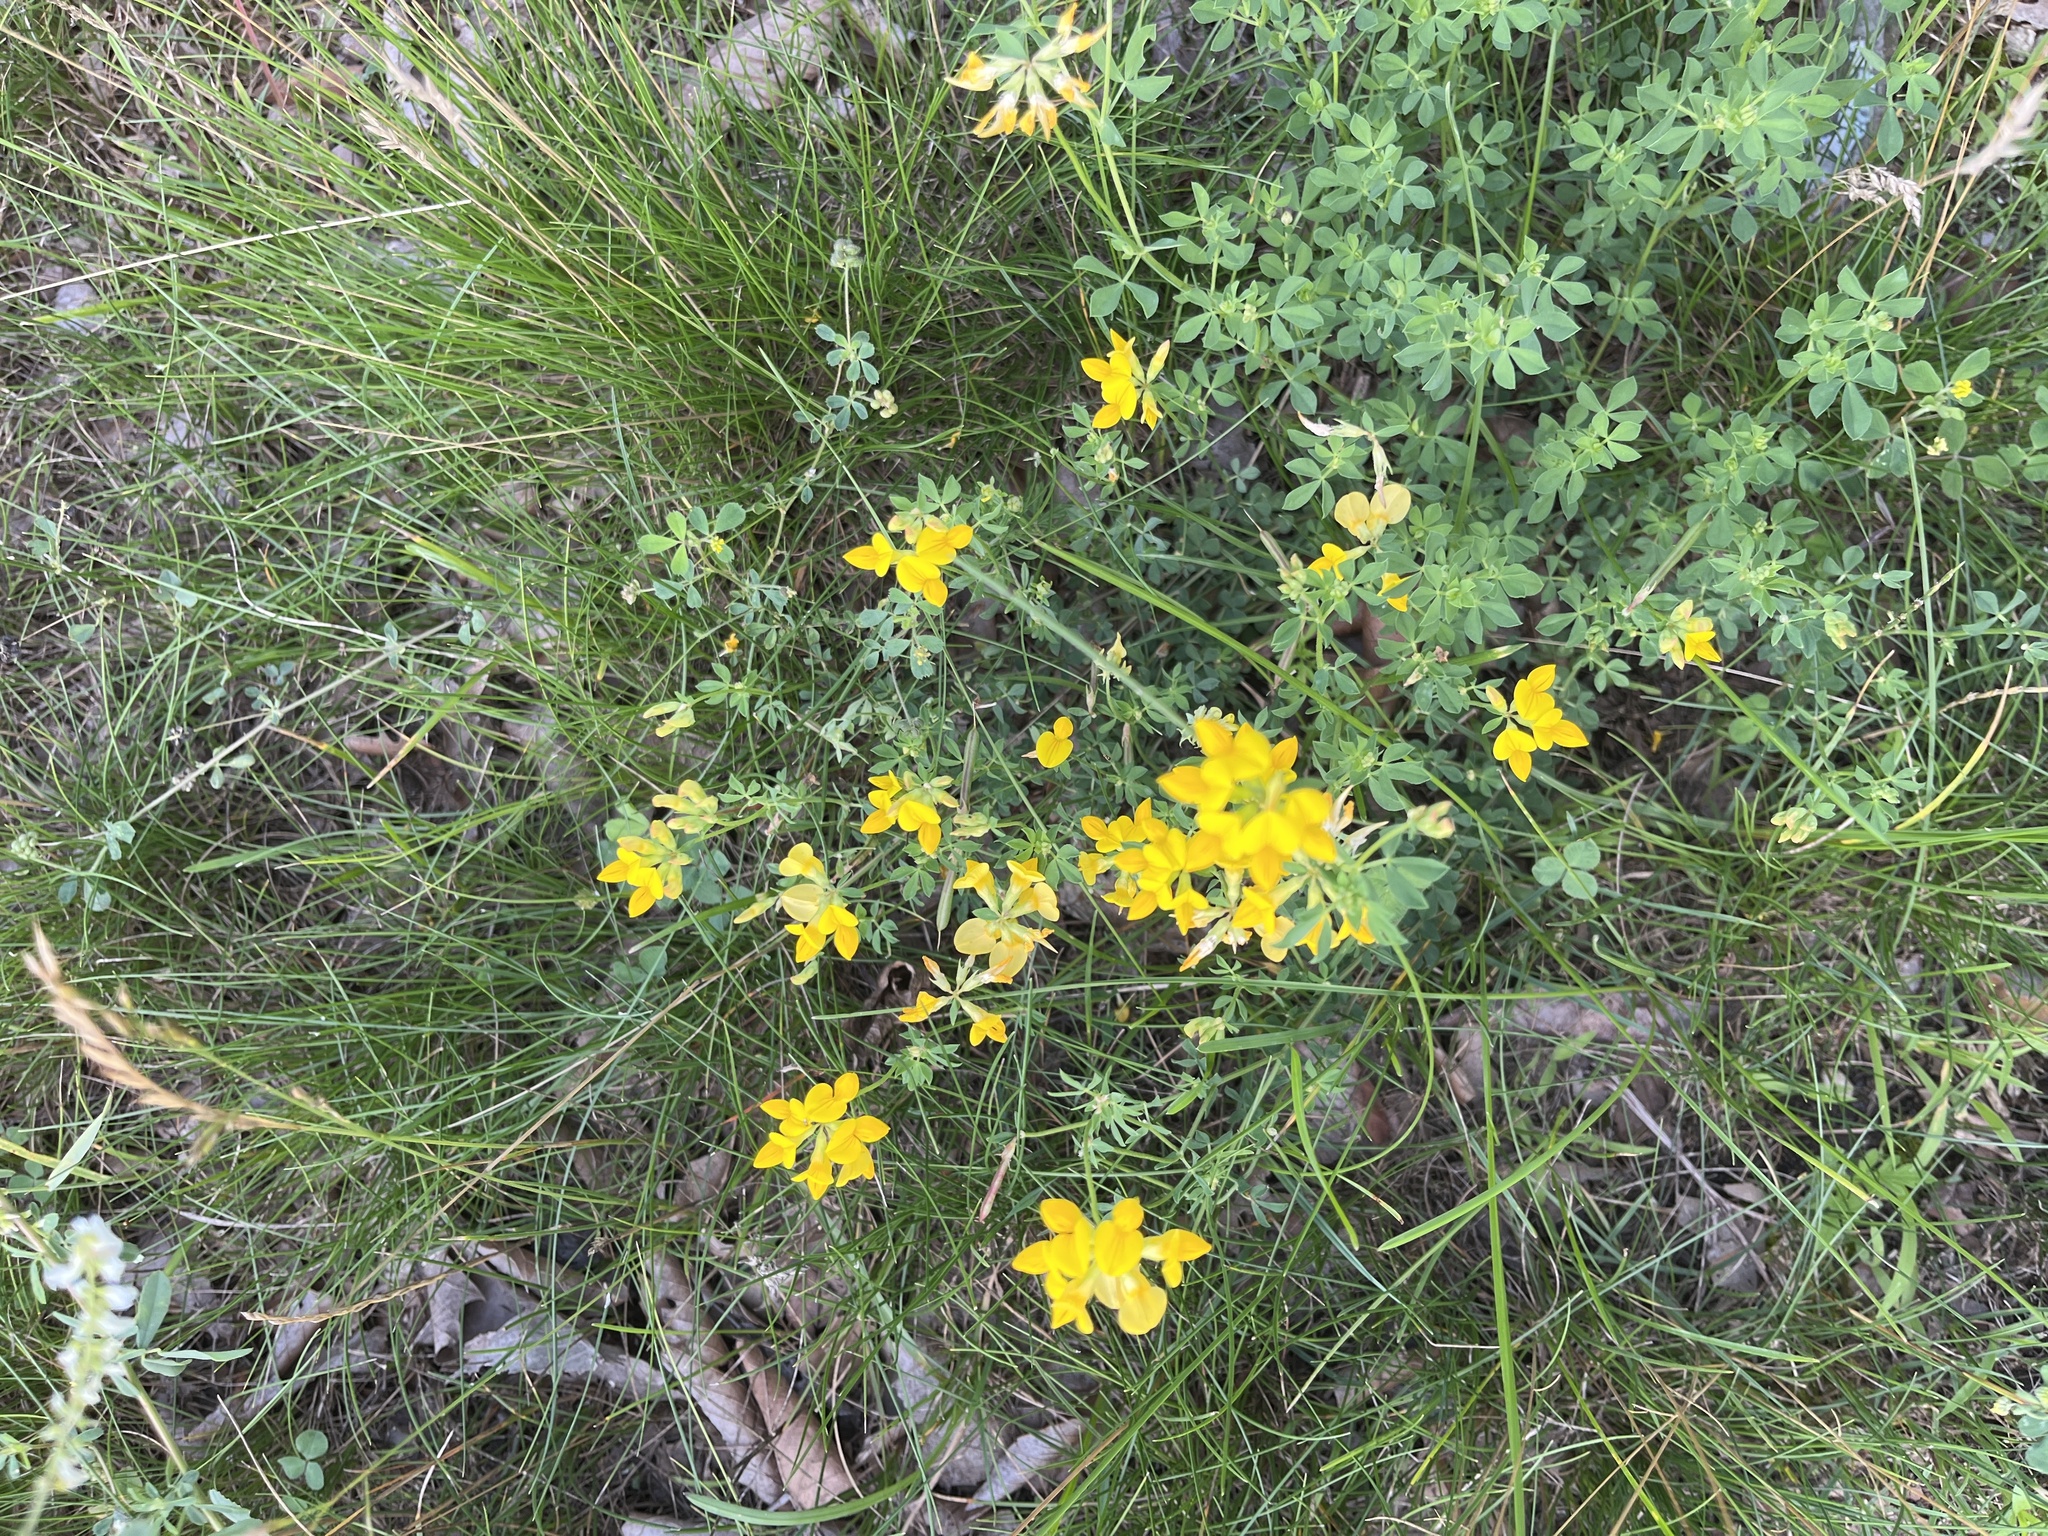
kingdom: Plantae
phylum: Tracheophyta
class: Magnoliopsida
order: Fabales
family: Fabaceae
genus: Lotus
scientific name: Lotus corniculatus
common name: Common bird's-foot-trefoil
